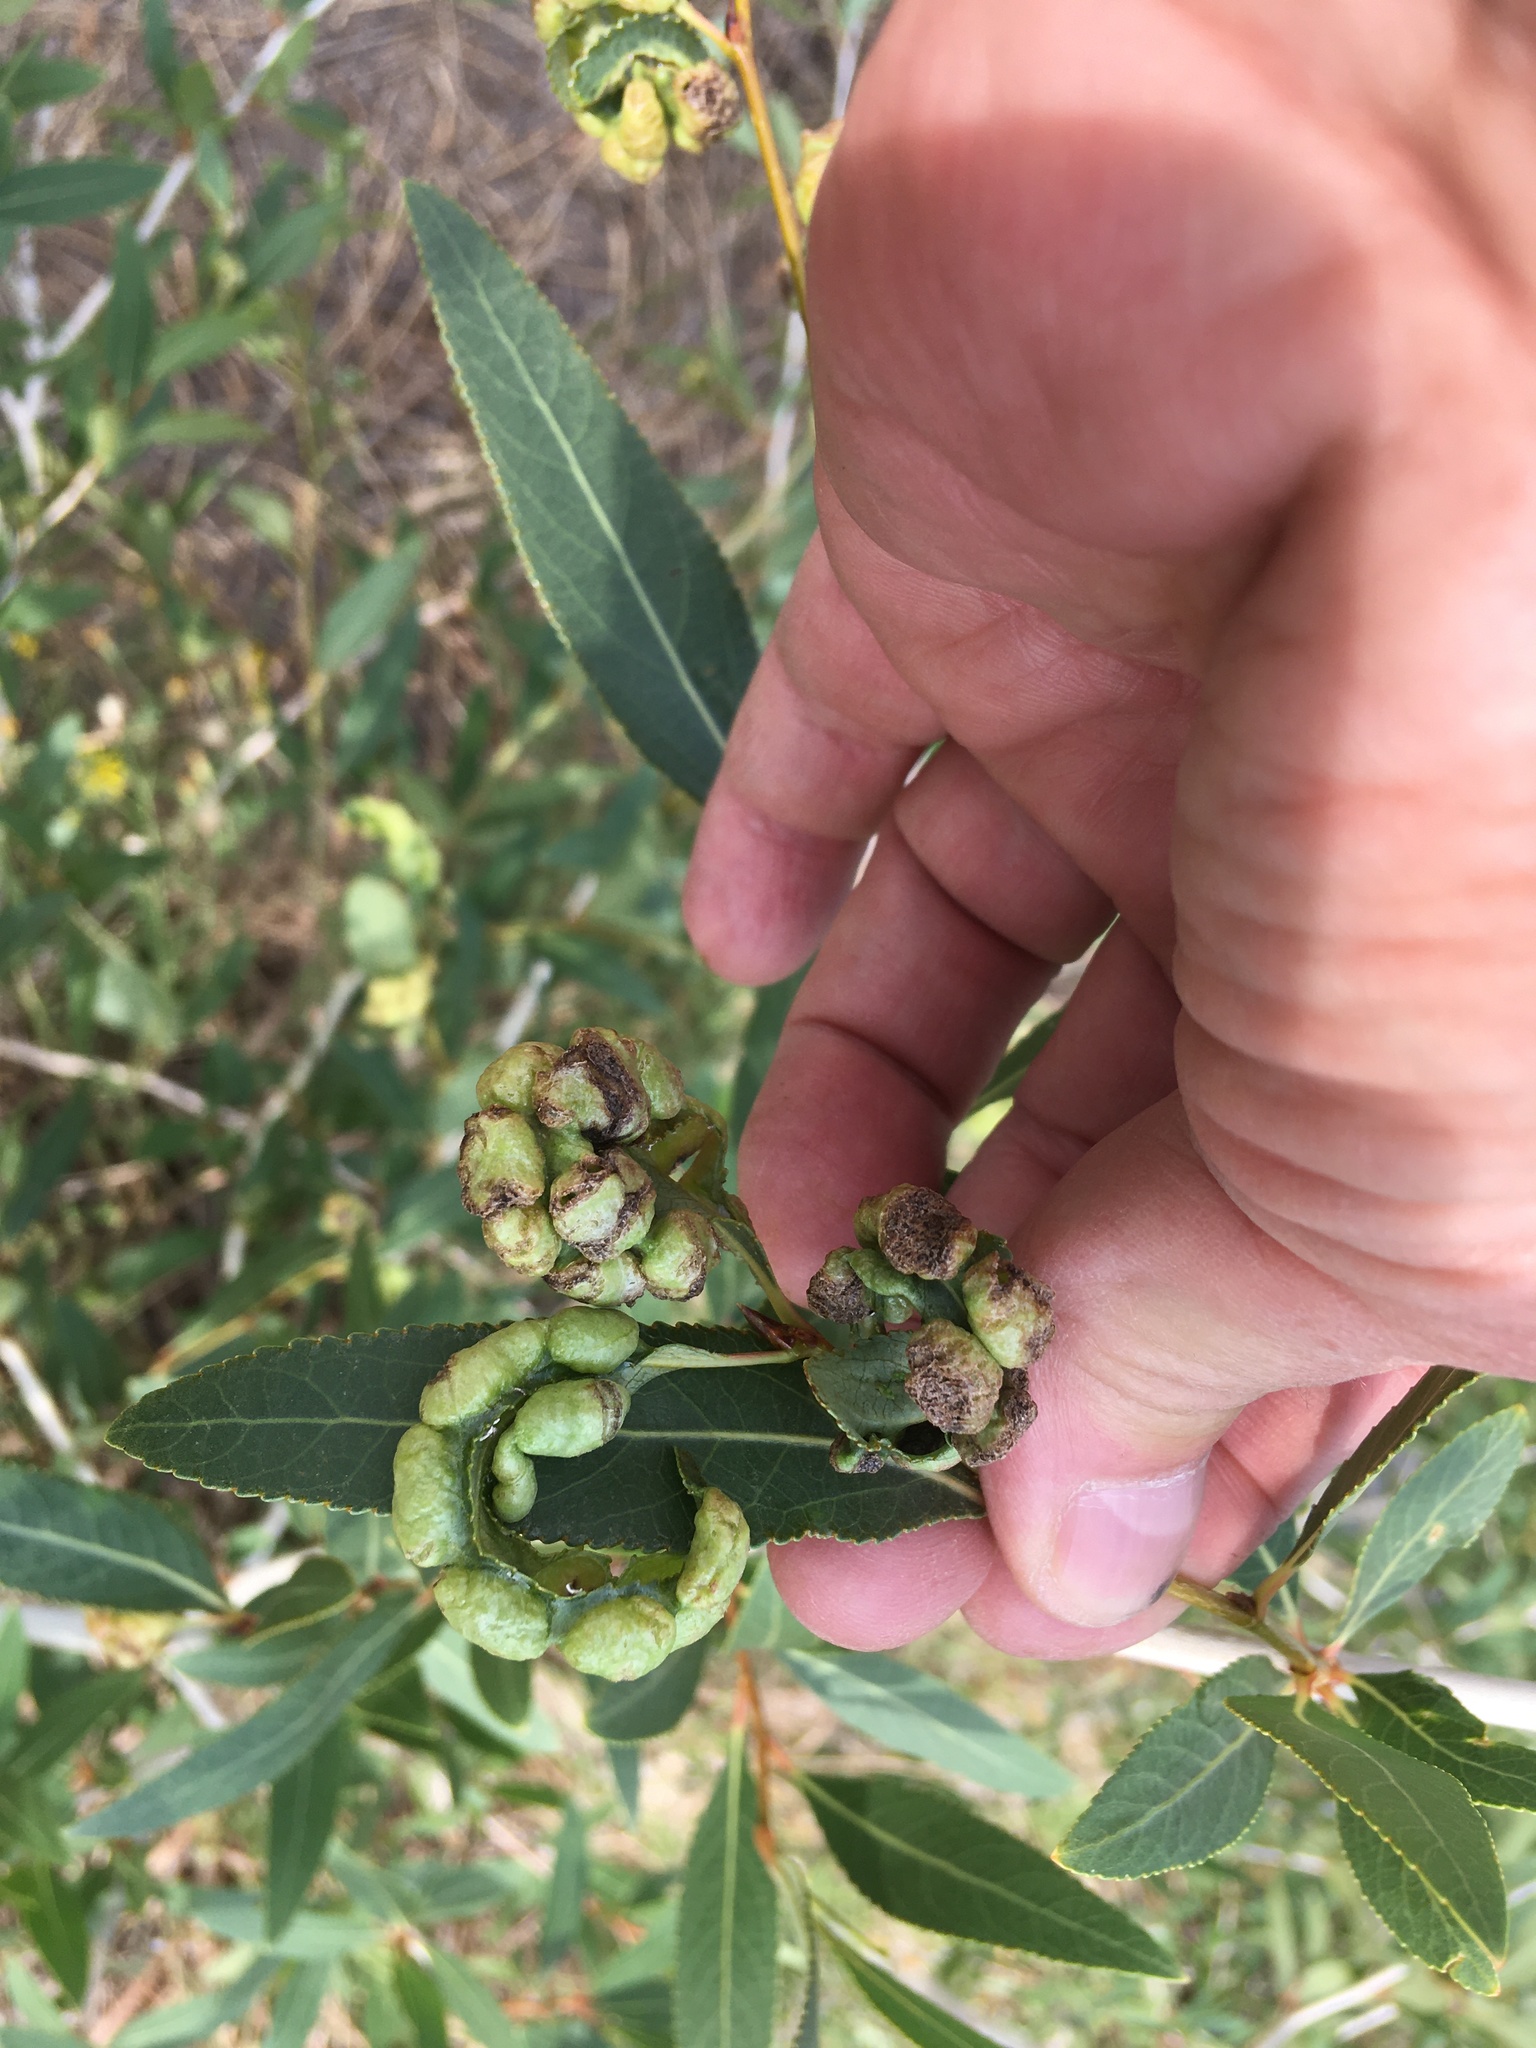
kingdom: Animalia
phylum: Arthropoda
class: Insecta
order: Hemiptera
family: Aphididae
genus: Thecabius
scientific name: Thecabius populimonilis
